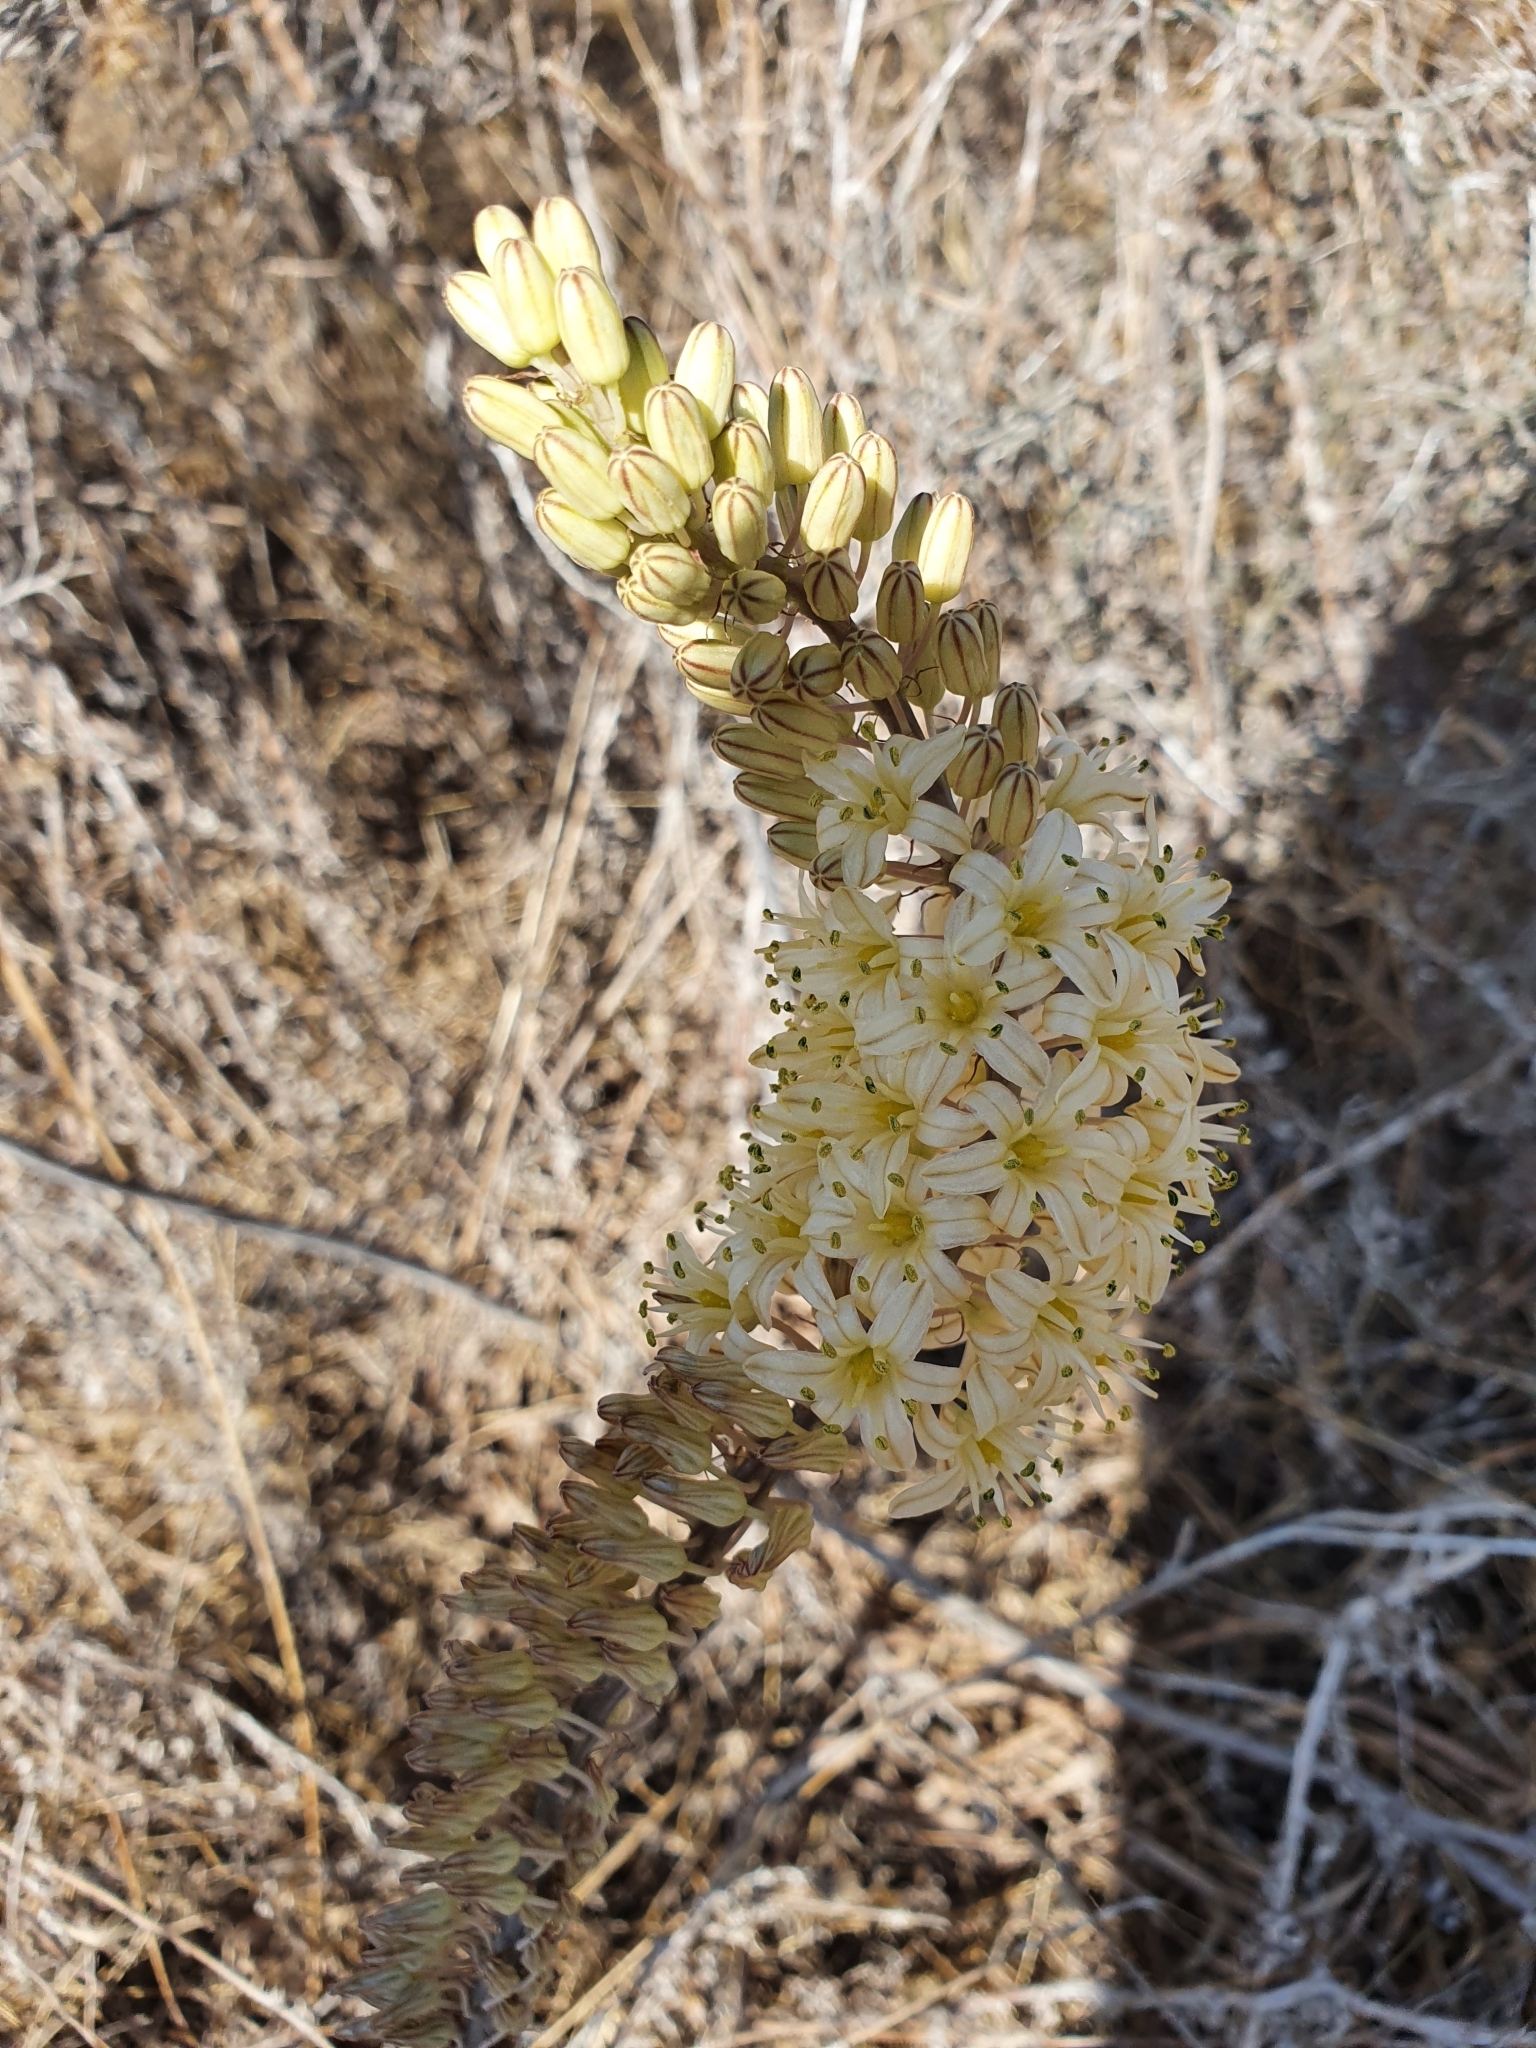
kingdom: Plantae
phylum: Tracheophyta
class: Liliopsida
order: Asparagales
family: Asparagaceae
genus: Drimia
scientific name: Drimia anthericoides
